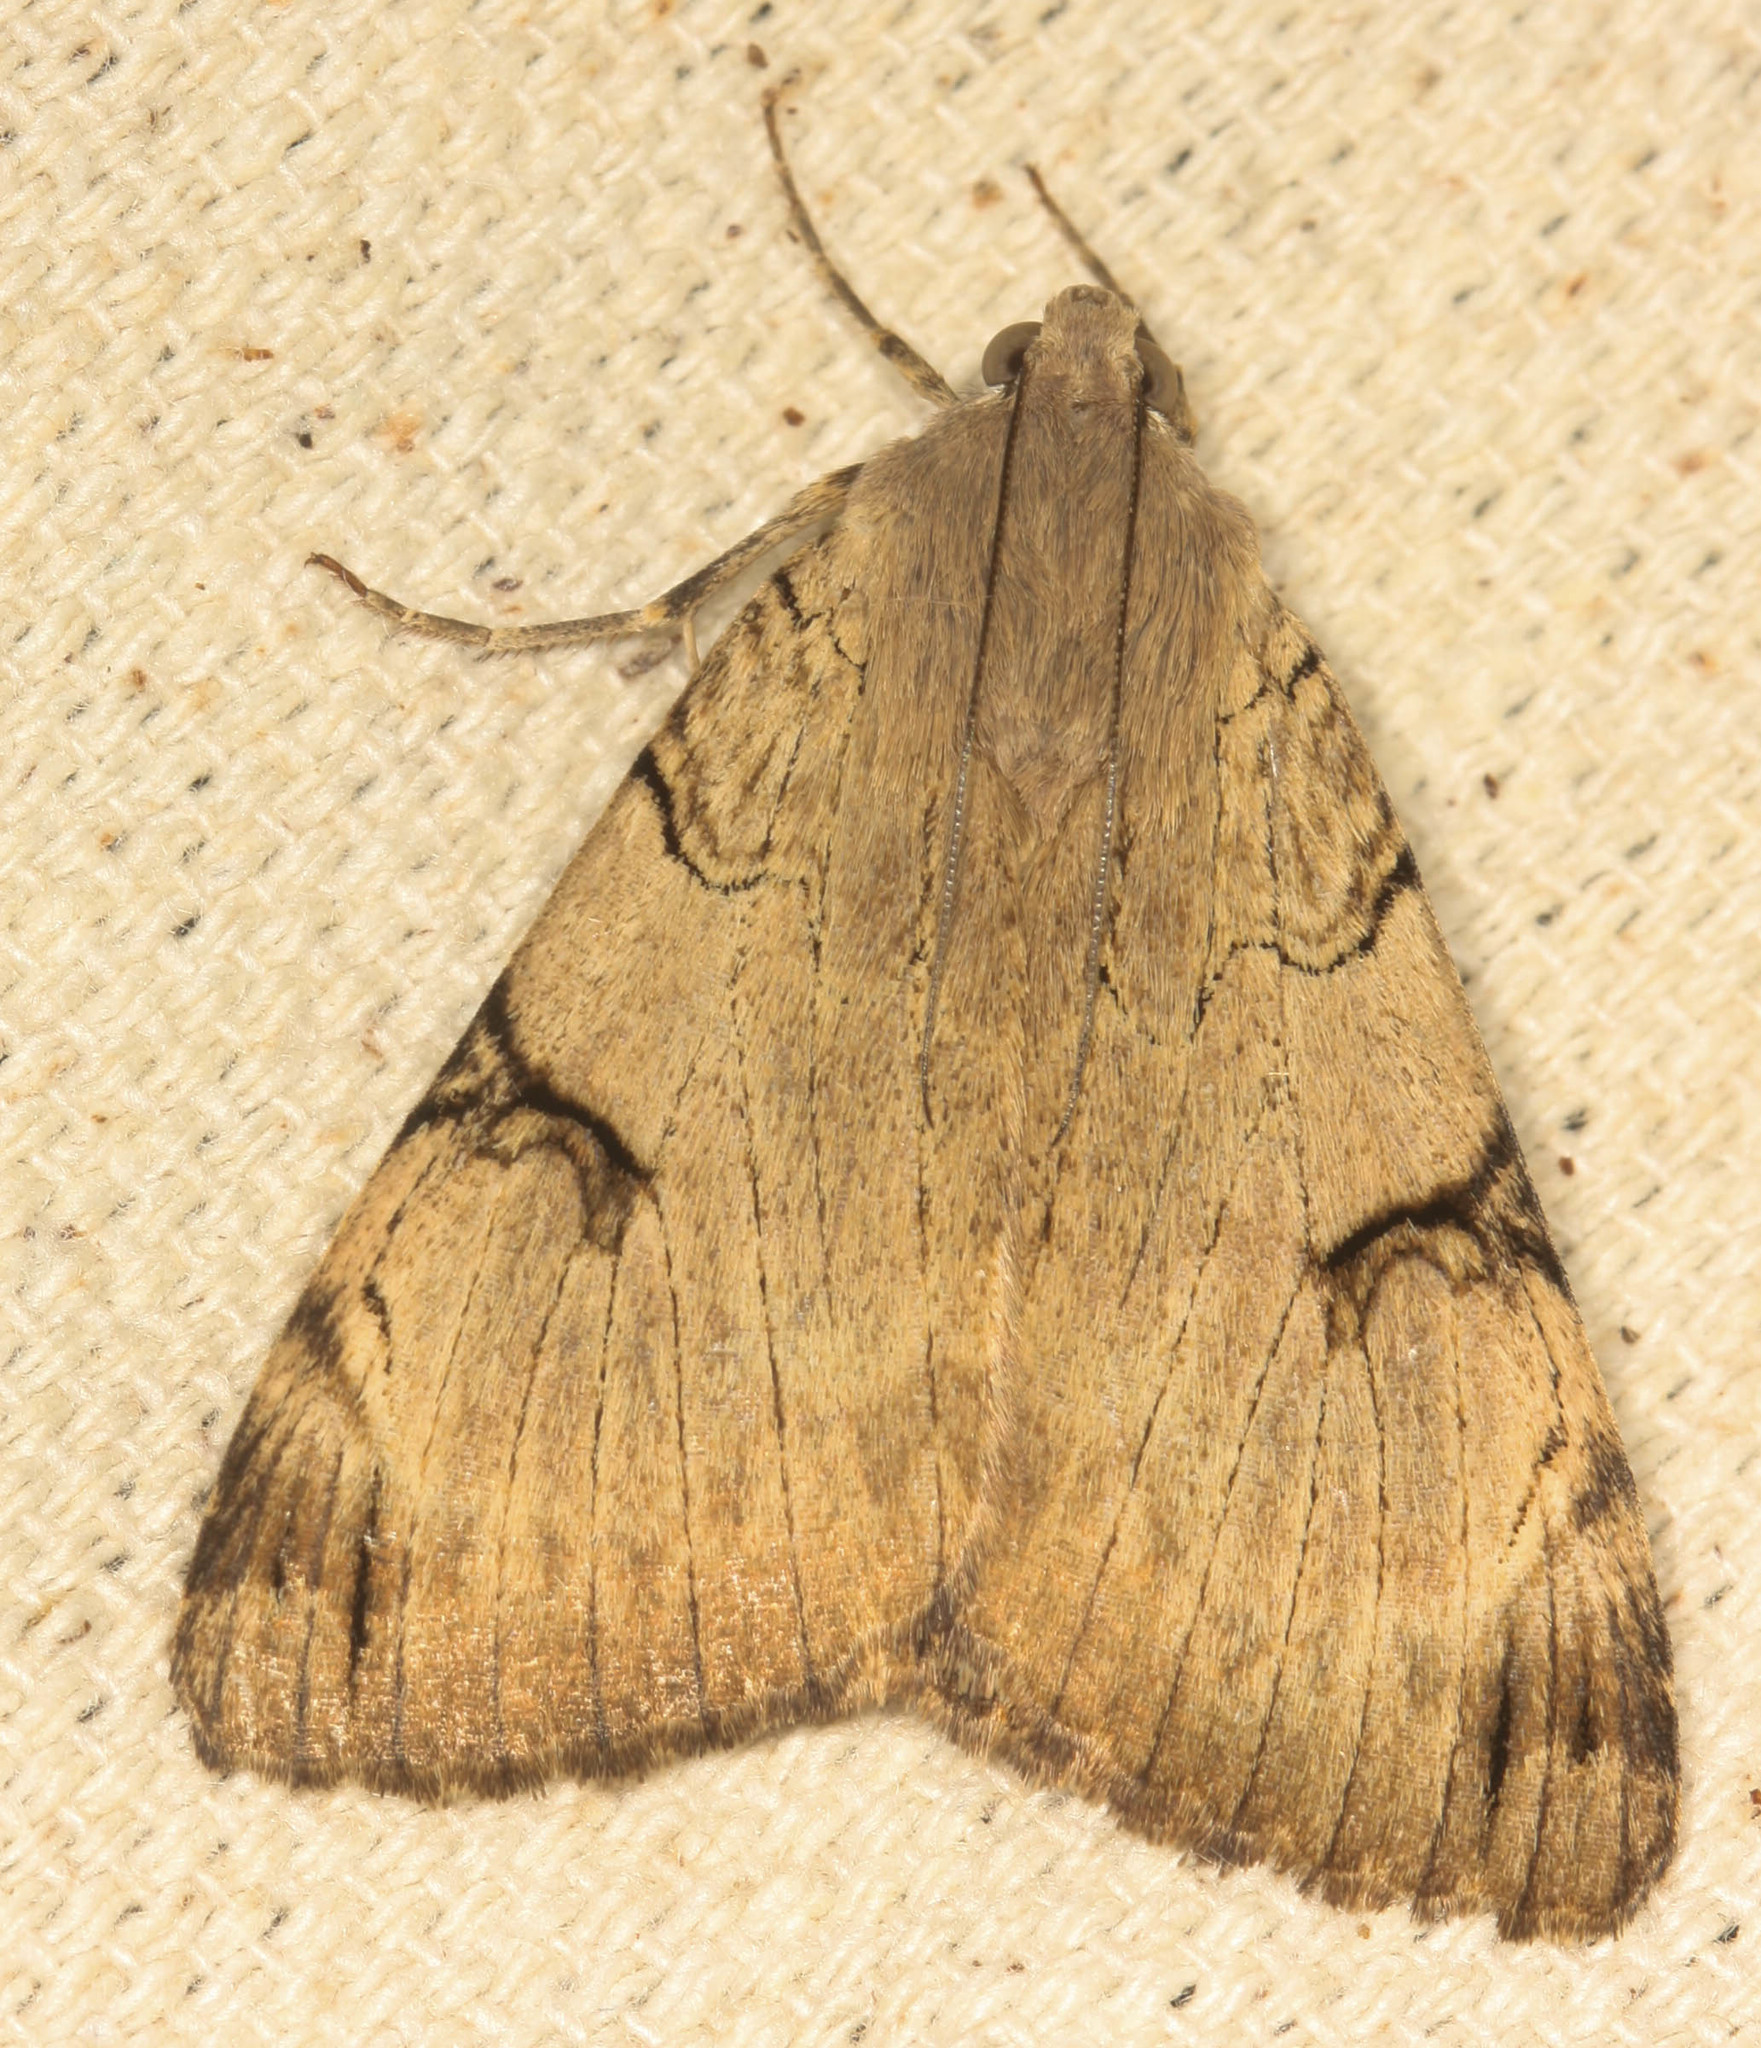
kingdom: Animalia
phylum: Arthropoda
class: Insecta
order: Lepidoptera
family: Erebidae
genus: Drasteria
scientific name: Drasteria ochracea
